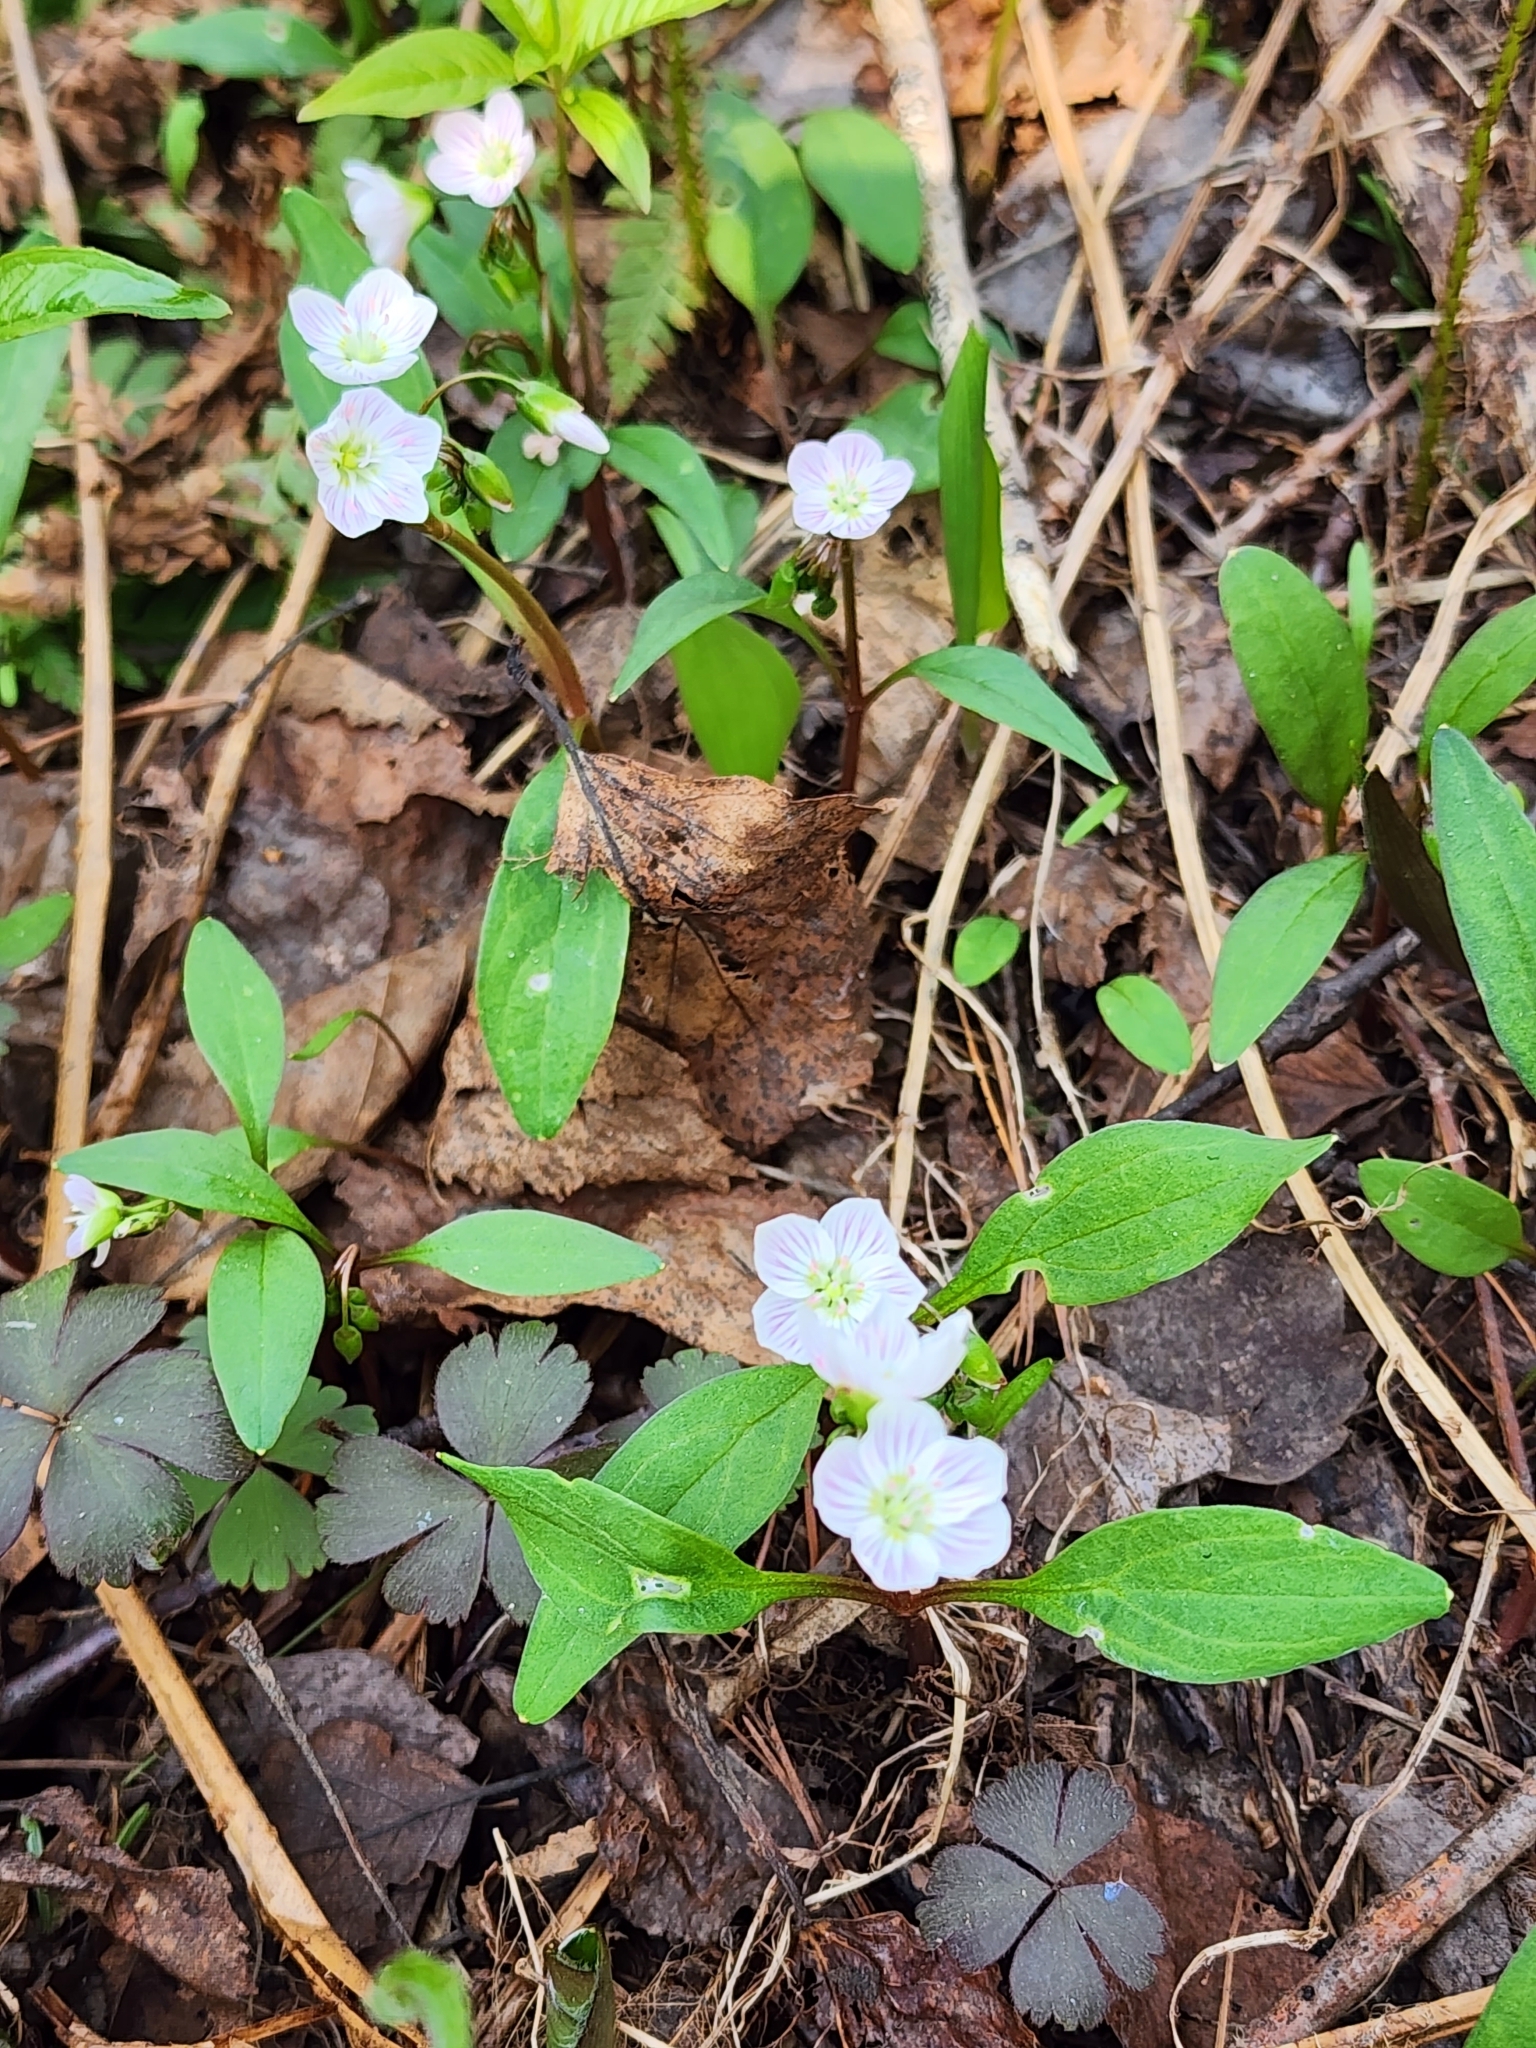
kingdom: Plantae
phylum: Tracheophyta
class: Magnoliopsida
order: Caryophyllales
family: Montiaceae
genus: Claytonia
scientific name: Claytonia caroliniana
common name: Carolina spring beauty
